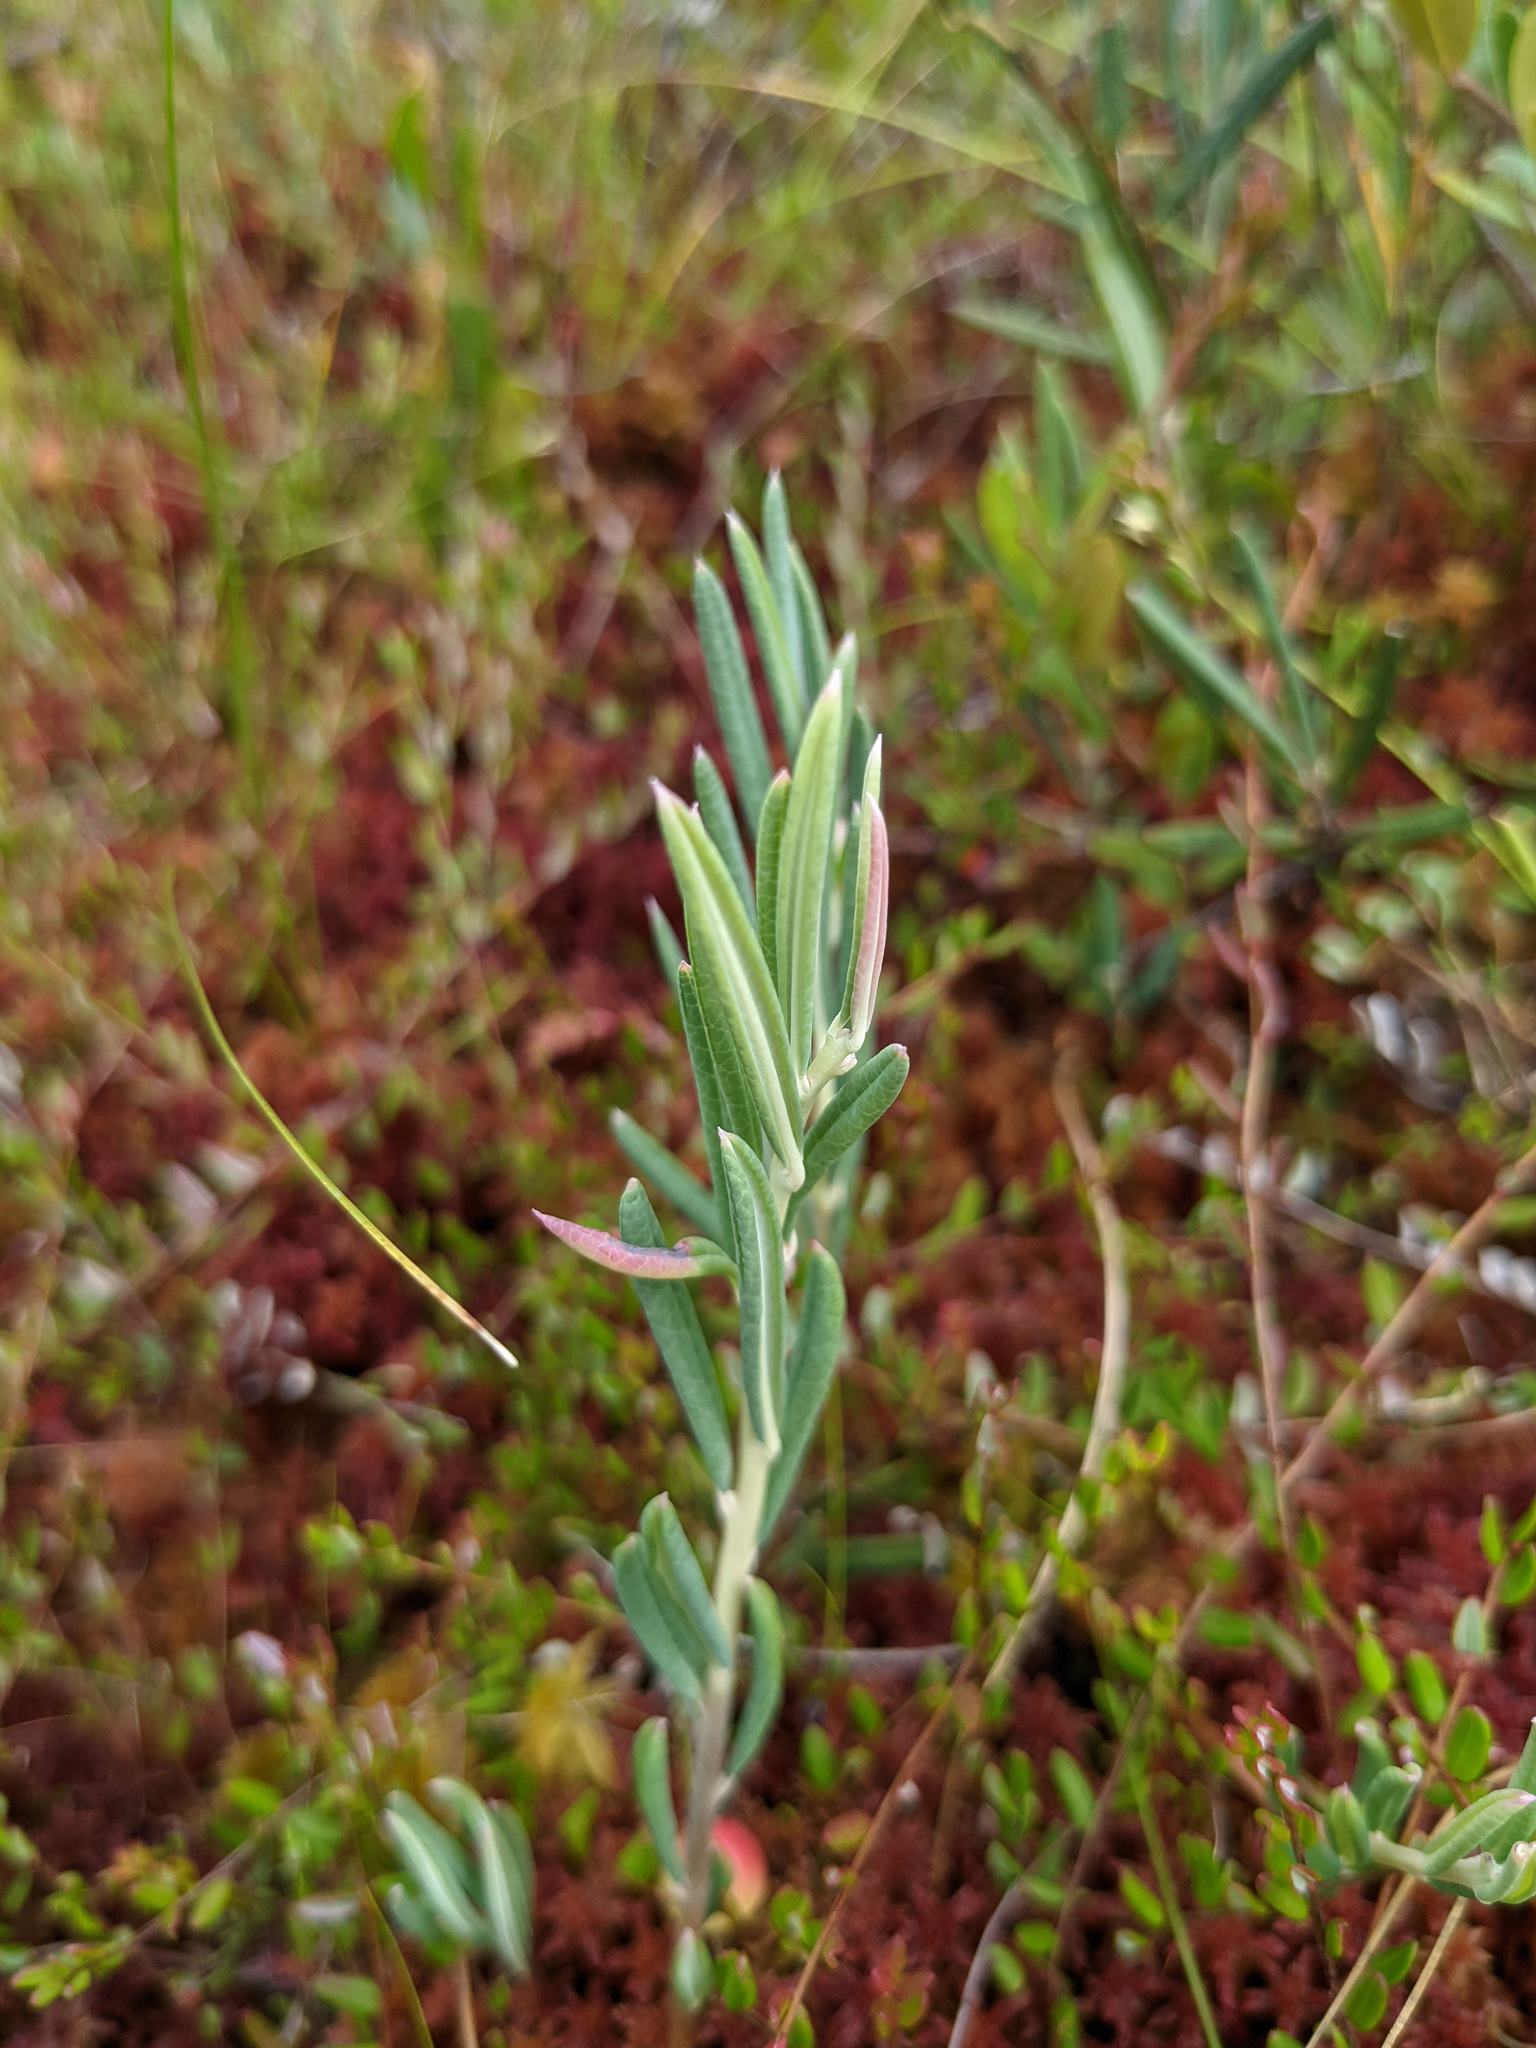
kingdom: Plantae
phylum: Tracheophyta
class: Magnoliopsida
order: Ericales
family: Ericaceae
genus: Andromeda
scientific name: Andromeda polifolia
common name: Bog-rosemary
